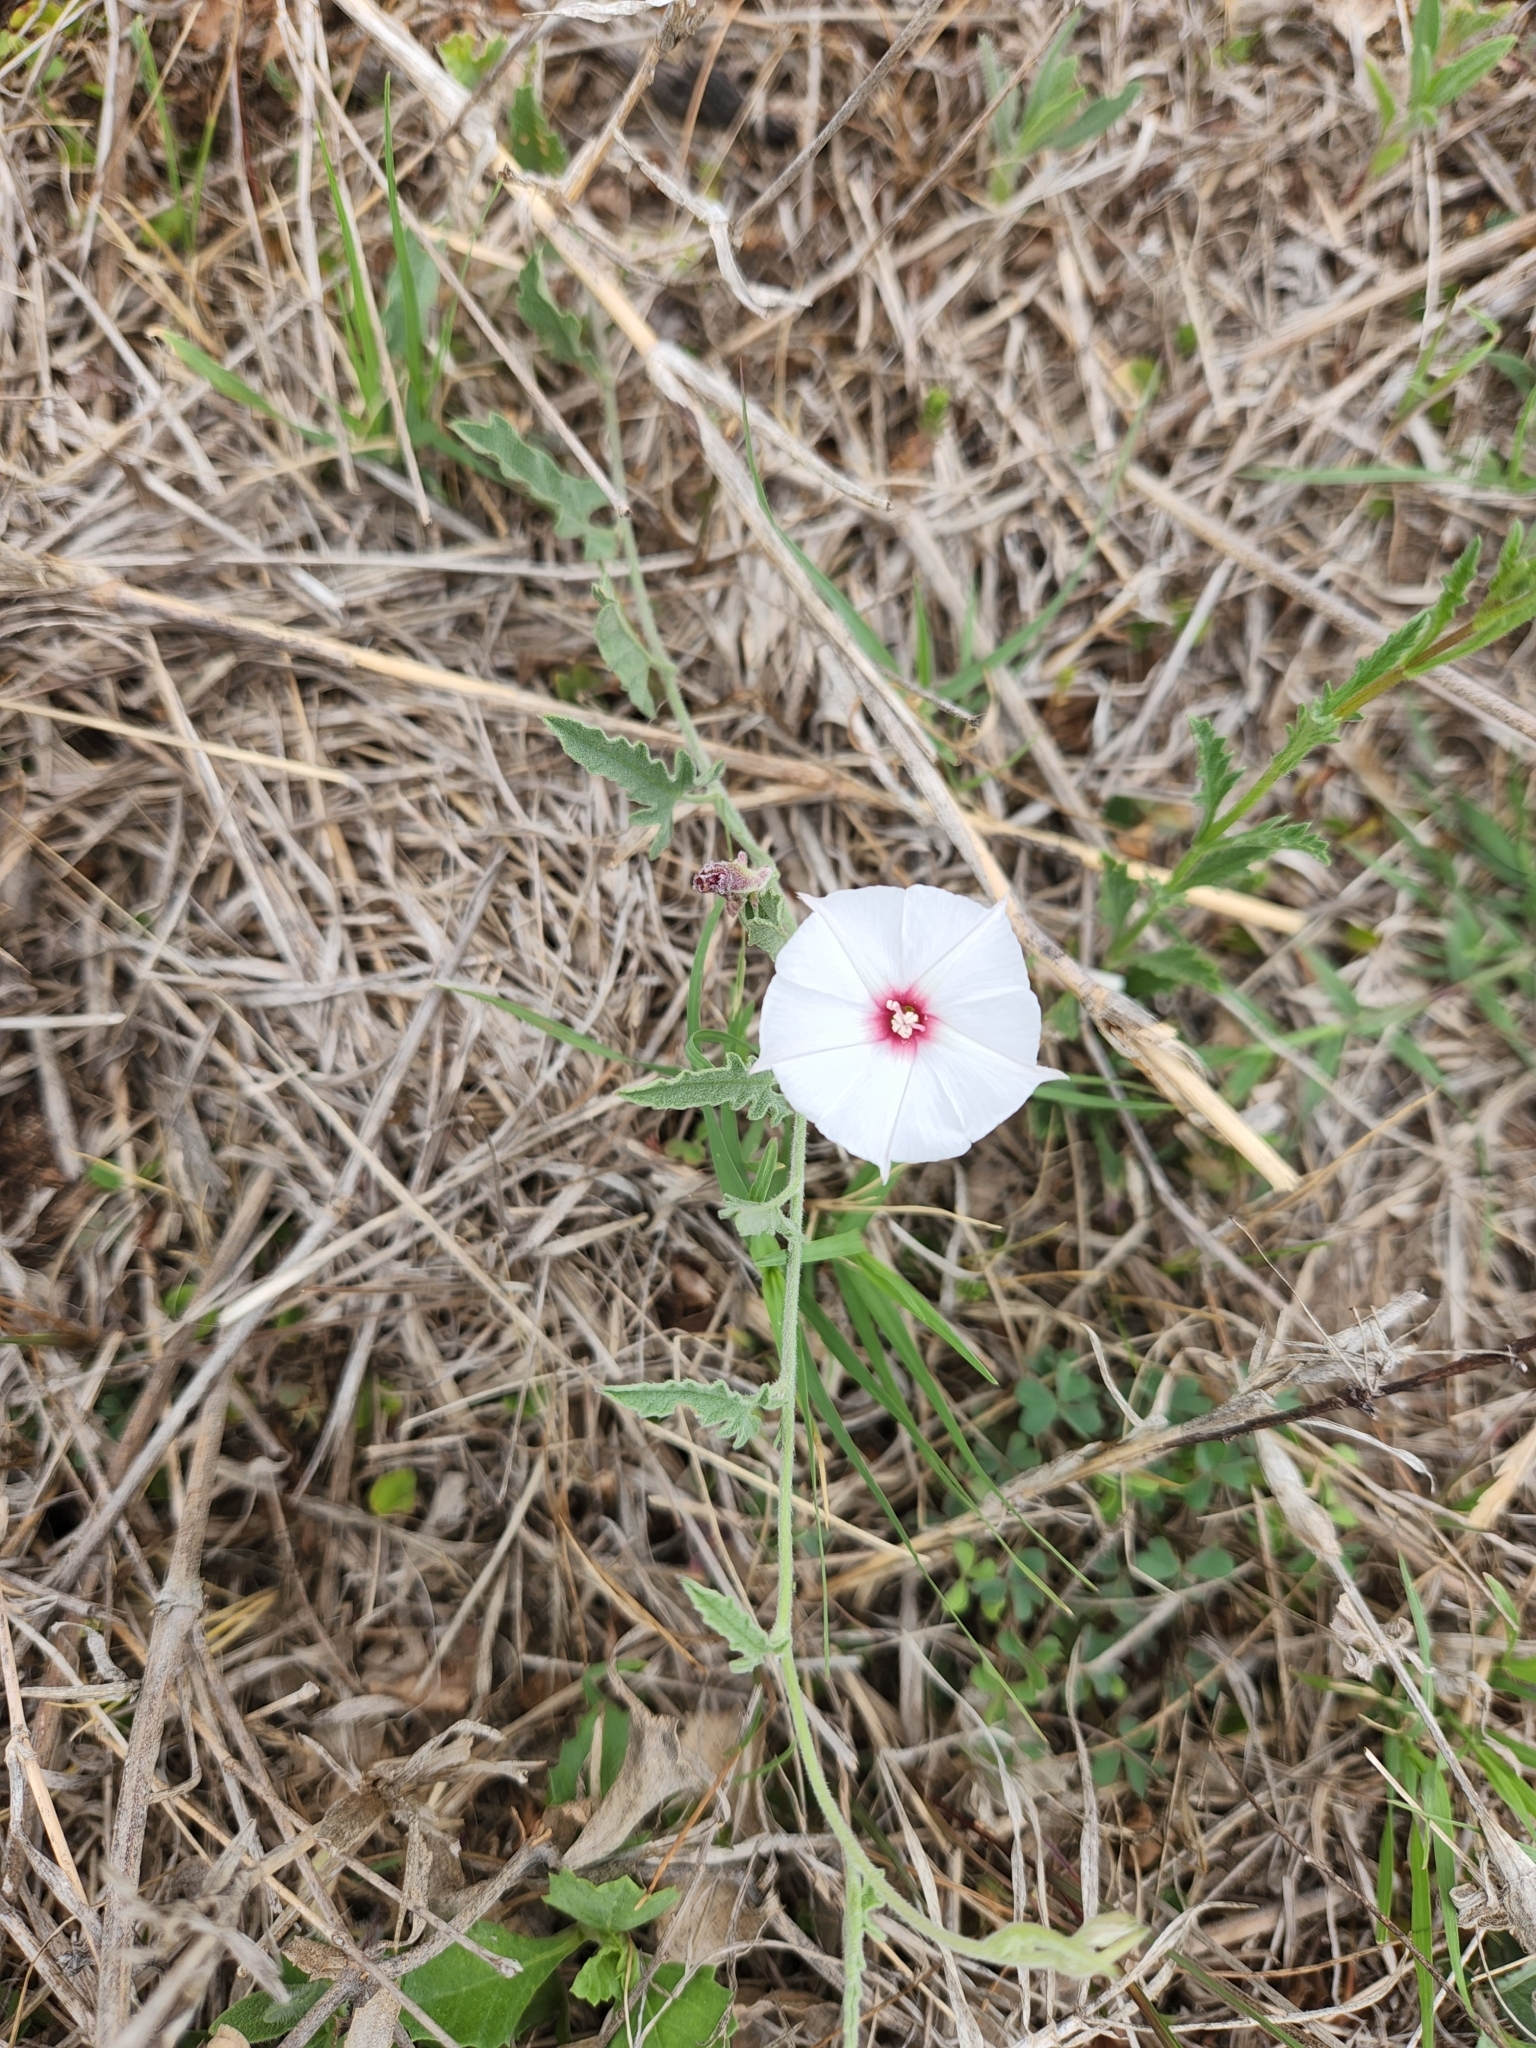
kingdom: Plantae
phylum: Tracheophyta
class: Magnoliopsida
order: Solanales
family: Convolvulaceae
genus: Convolvulus
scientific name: Convolvulus equitans
